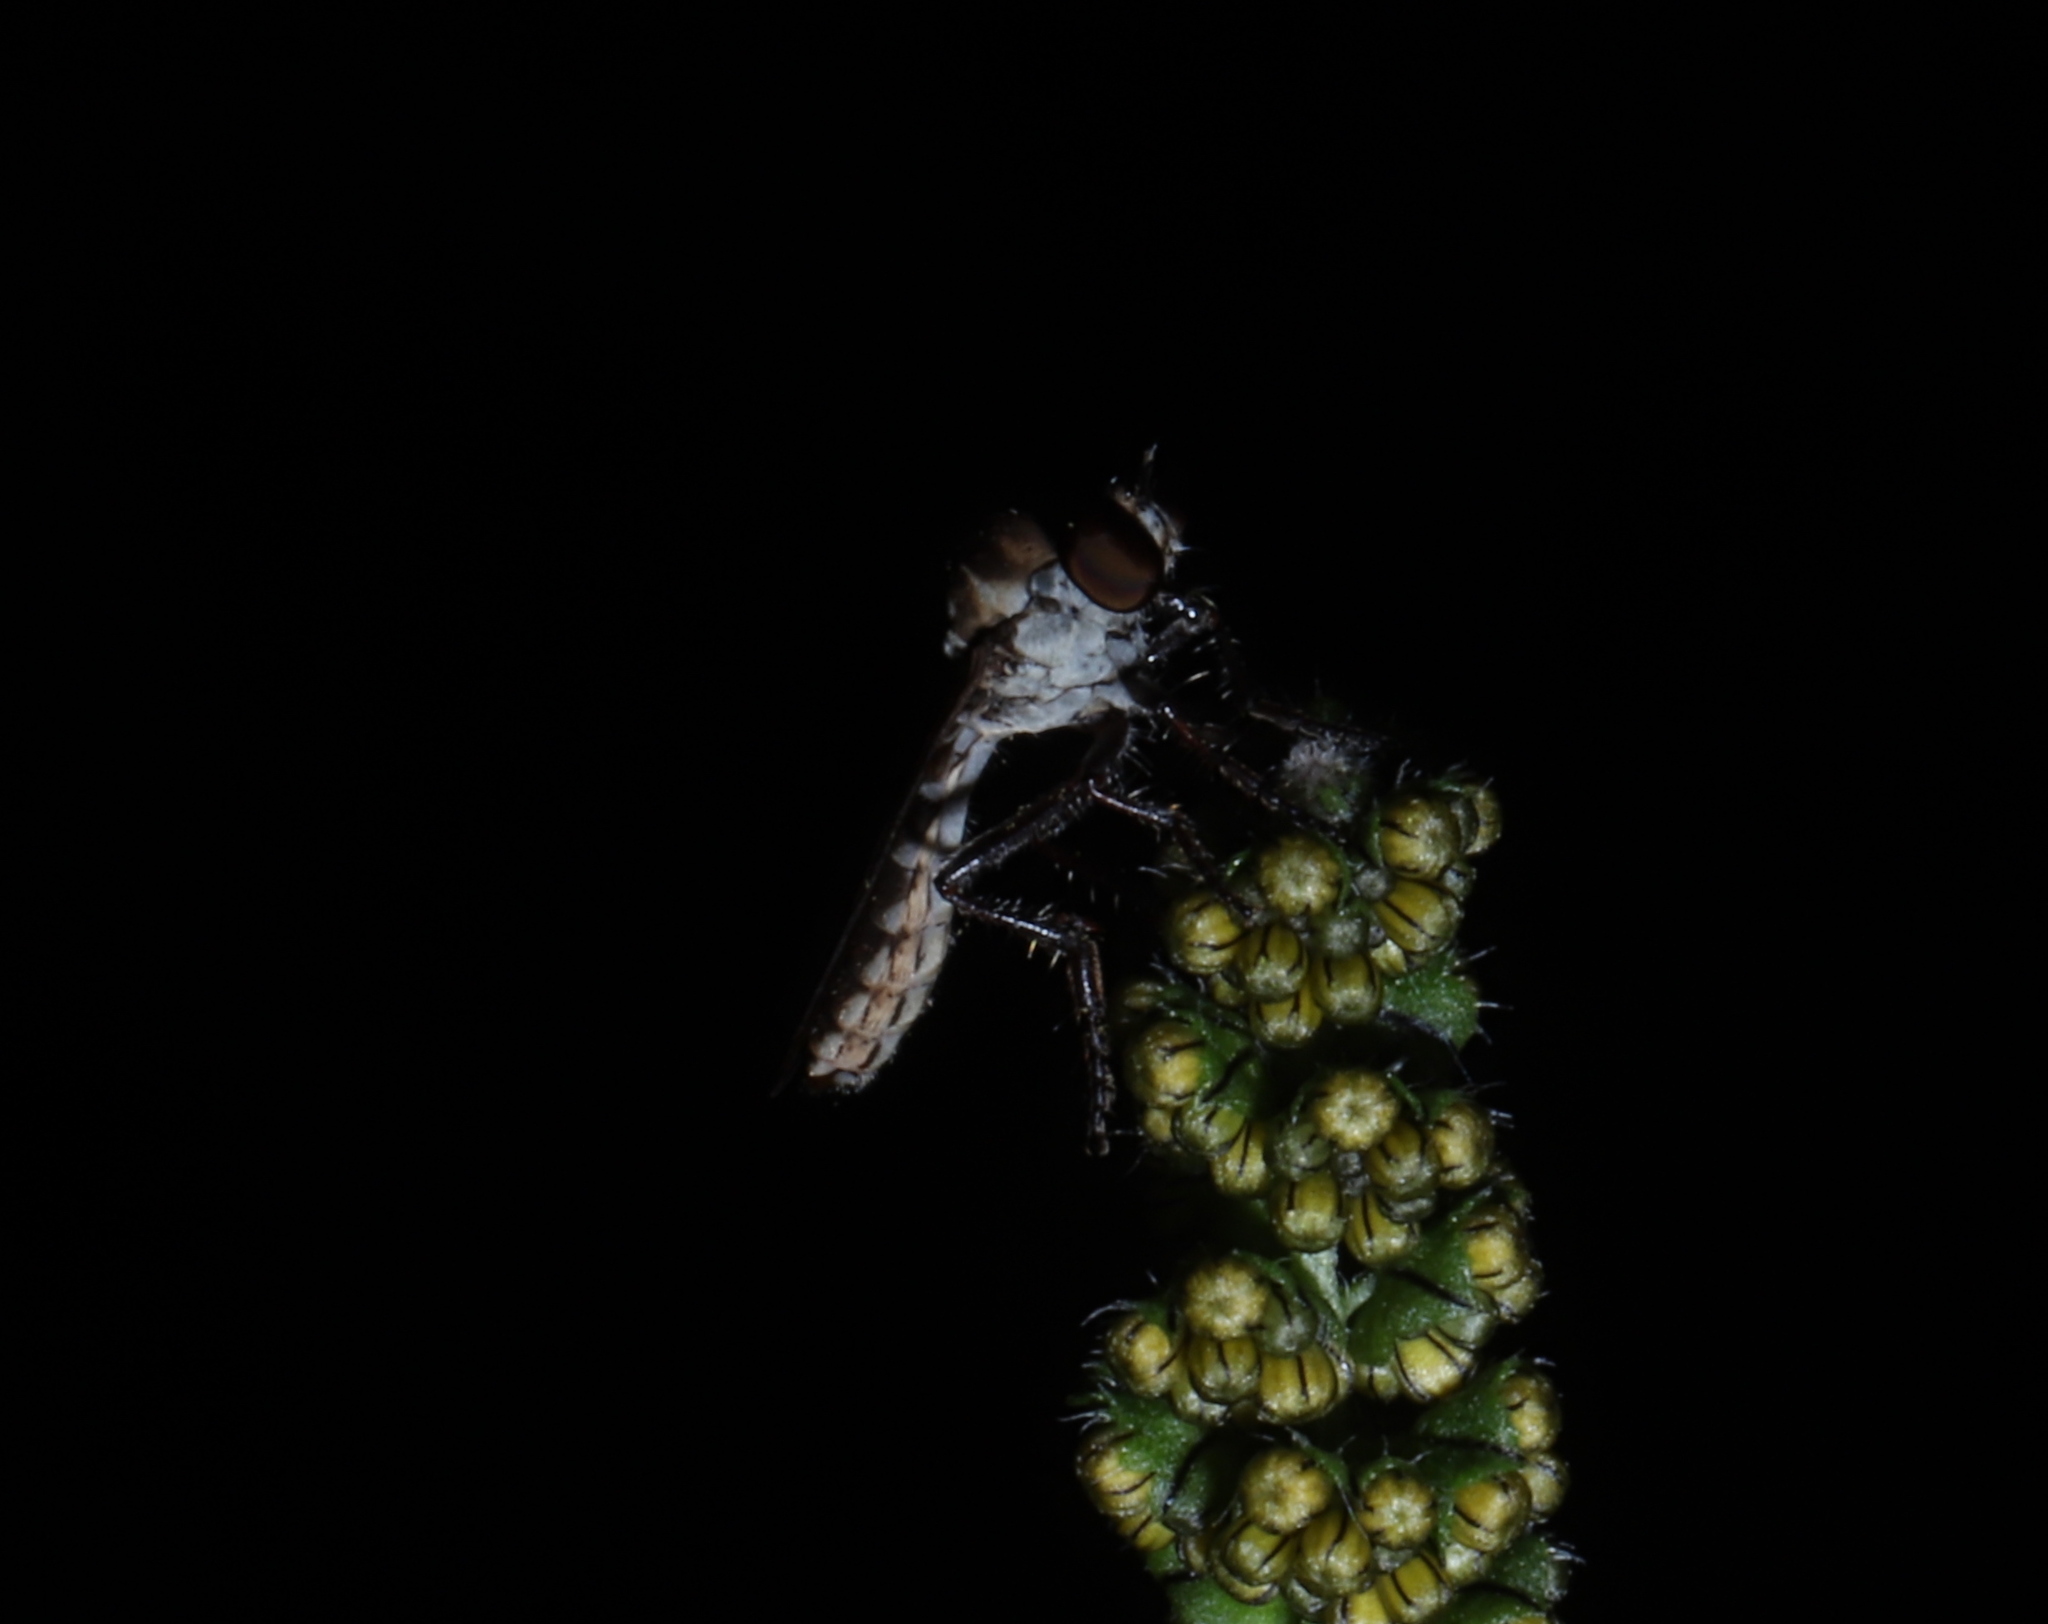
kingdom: Animalia
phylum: Arthropoda
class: Insecta
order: Diptera
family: Asilidae
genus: Holcocephala
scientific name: Holcocephala calva
